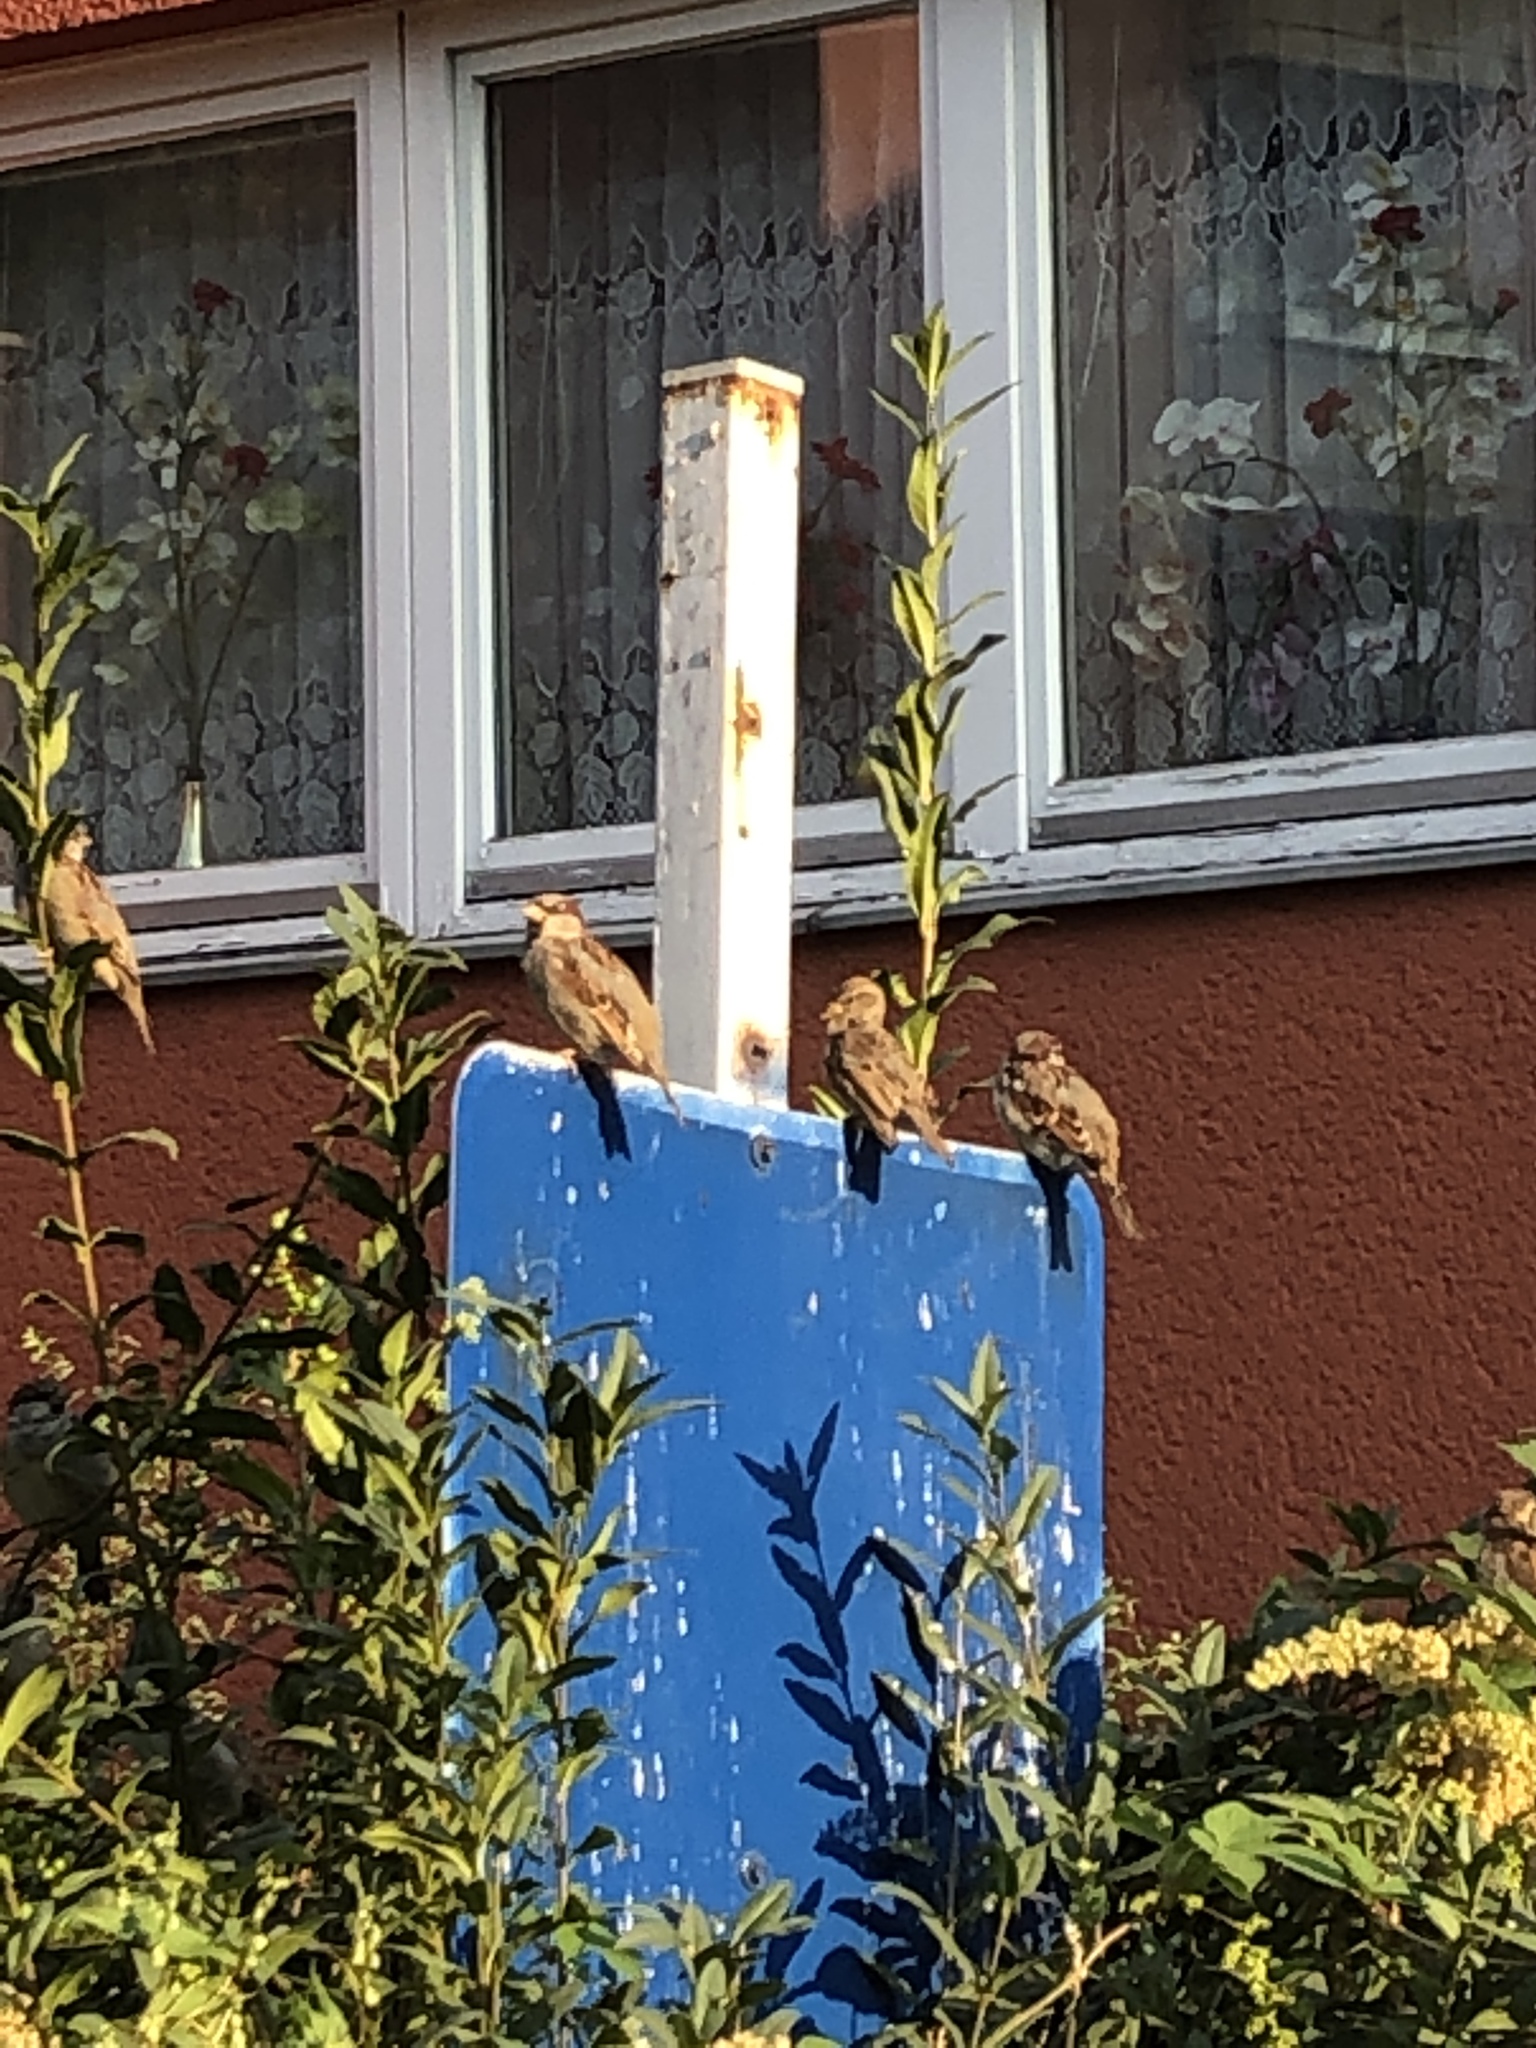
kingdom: Animalia
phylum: Chordata
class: Aves
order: Passeriformes
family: Passeridae
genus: Passer
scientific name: Passer domesticus
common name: House sparrow
